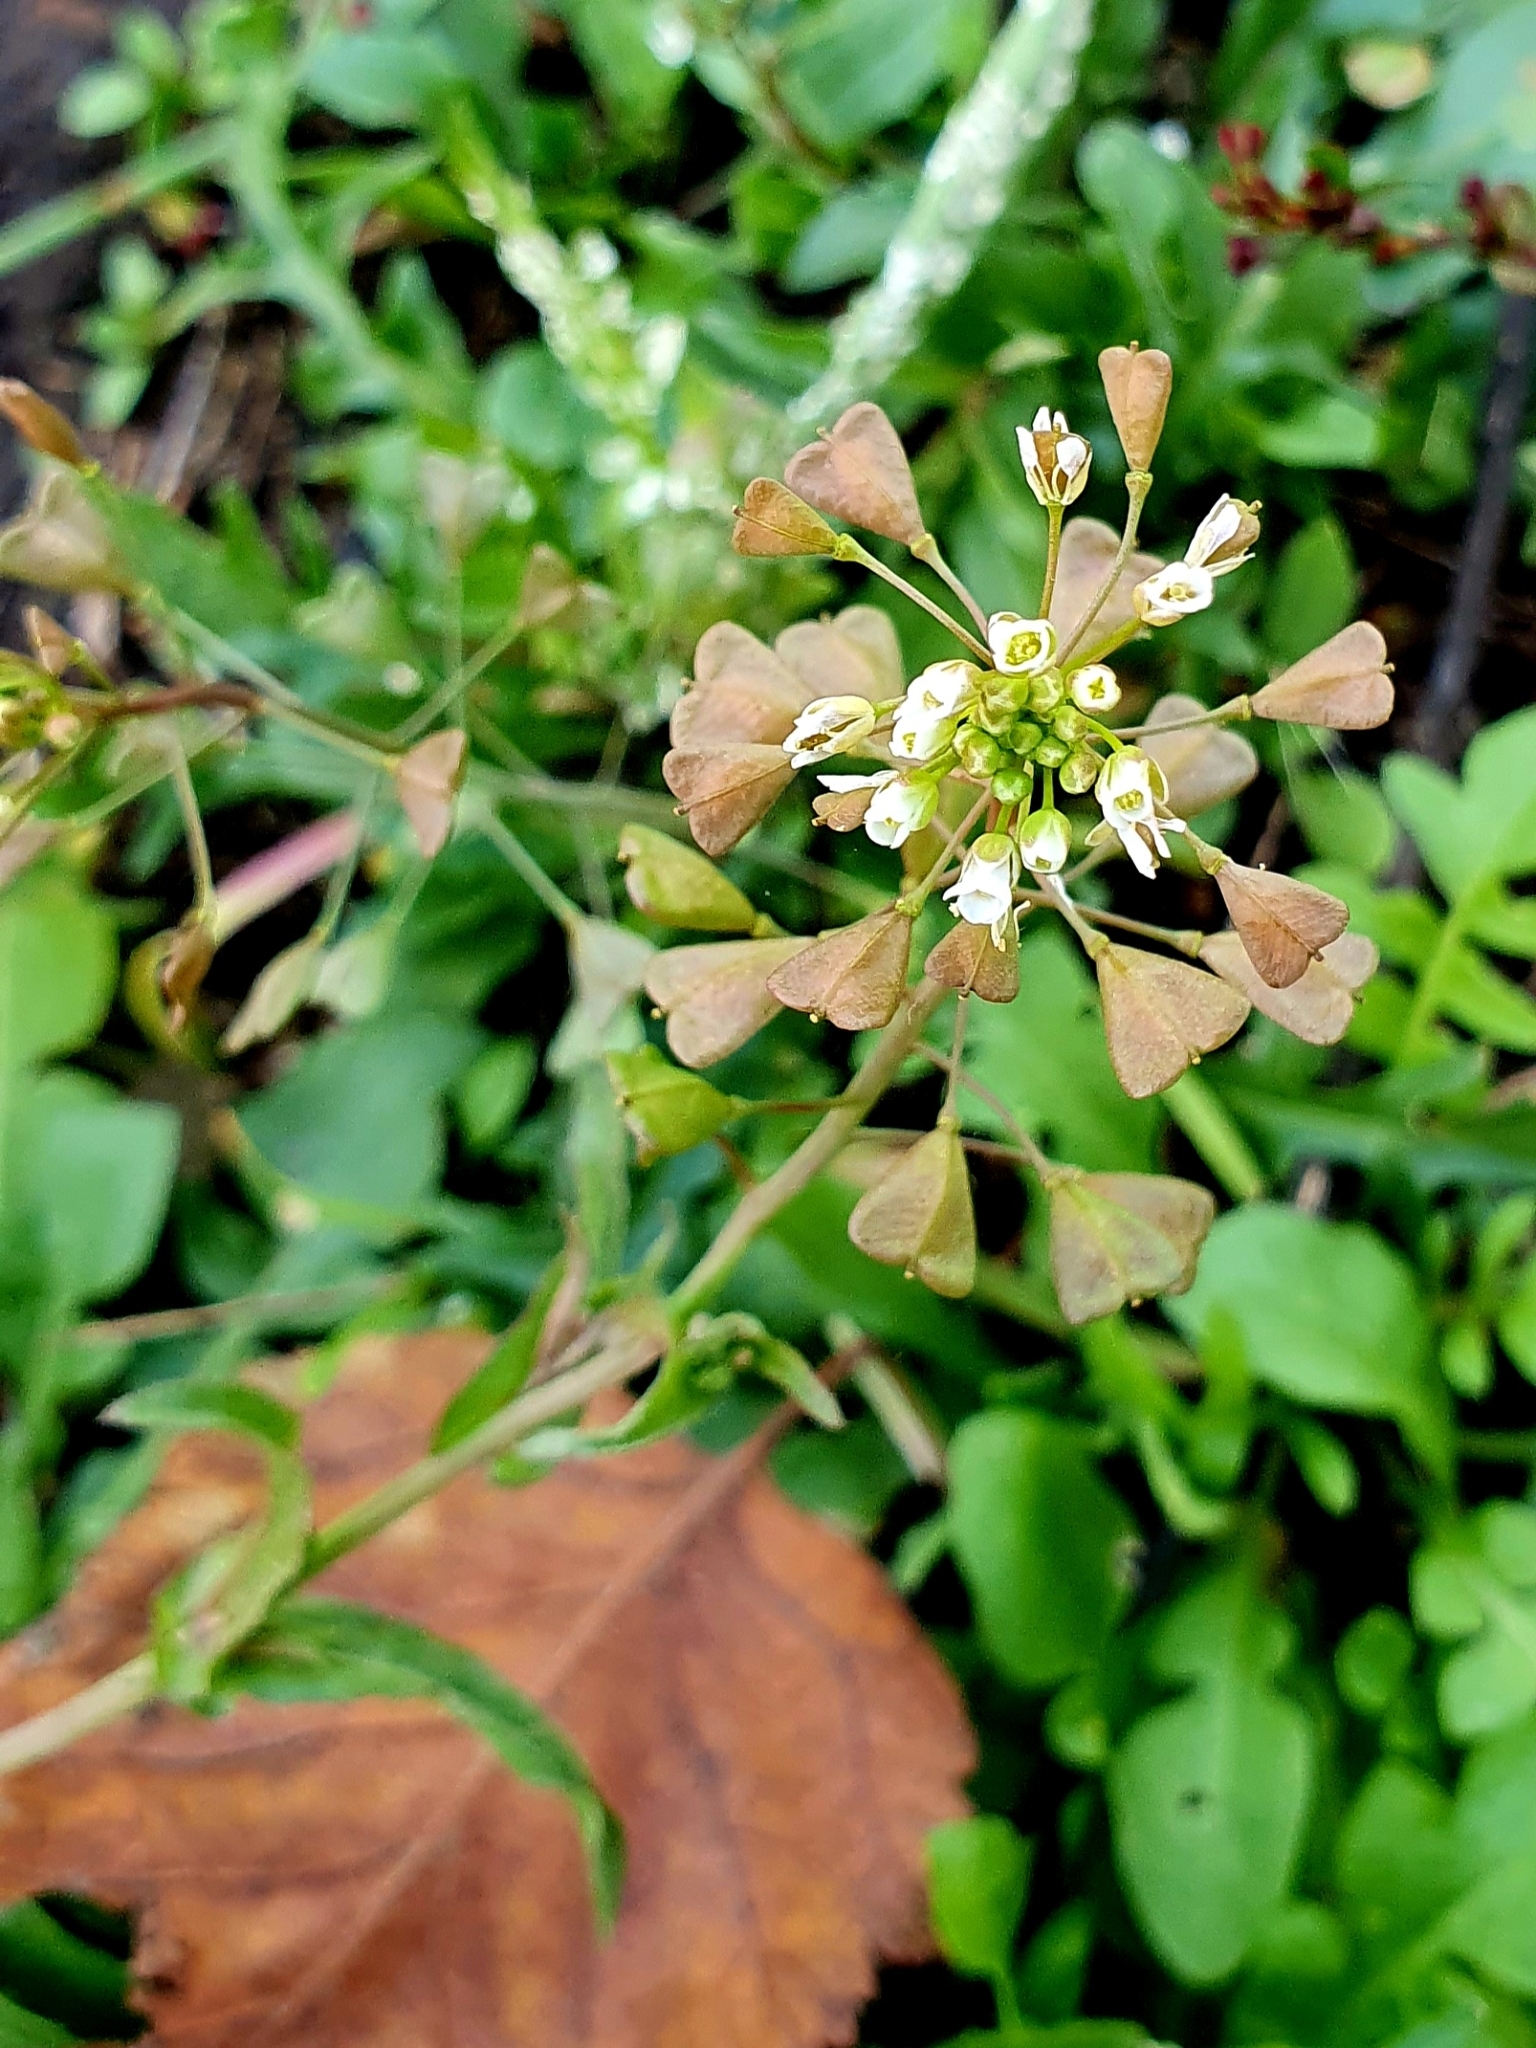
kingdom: Plantae
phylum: Tracheophyta
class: Magnoliopsida
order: Brassicales
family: Brassicaceae
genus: Capsella
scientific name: Capsella bursa-pastoris
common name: Shepherd's purse
